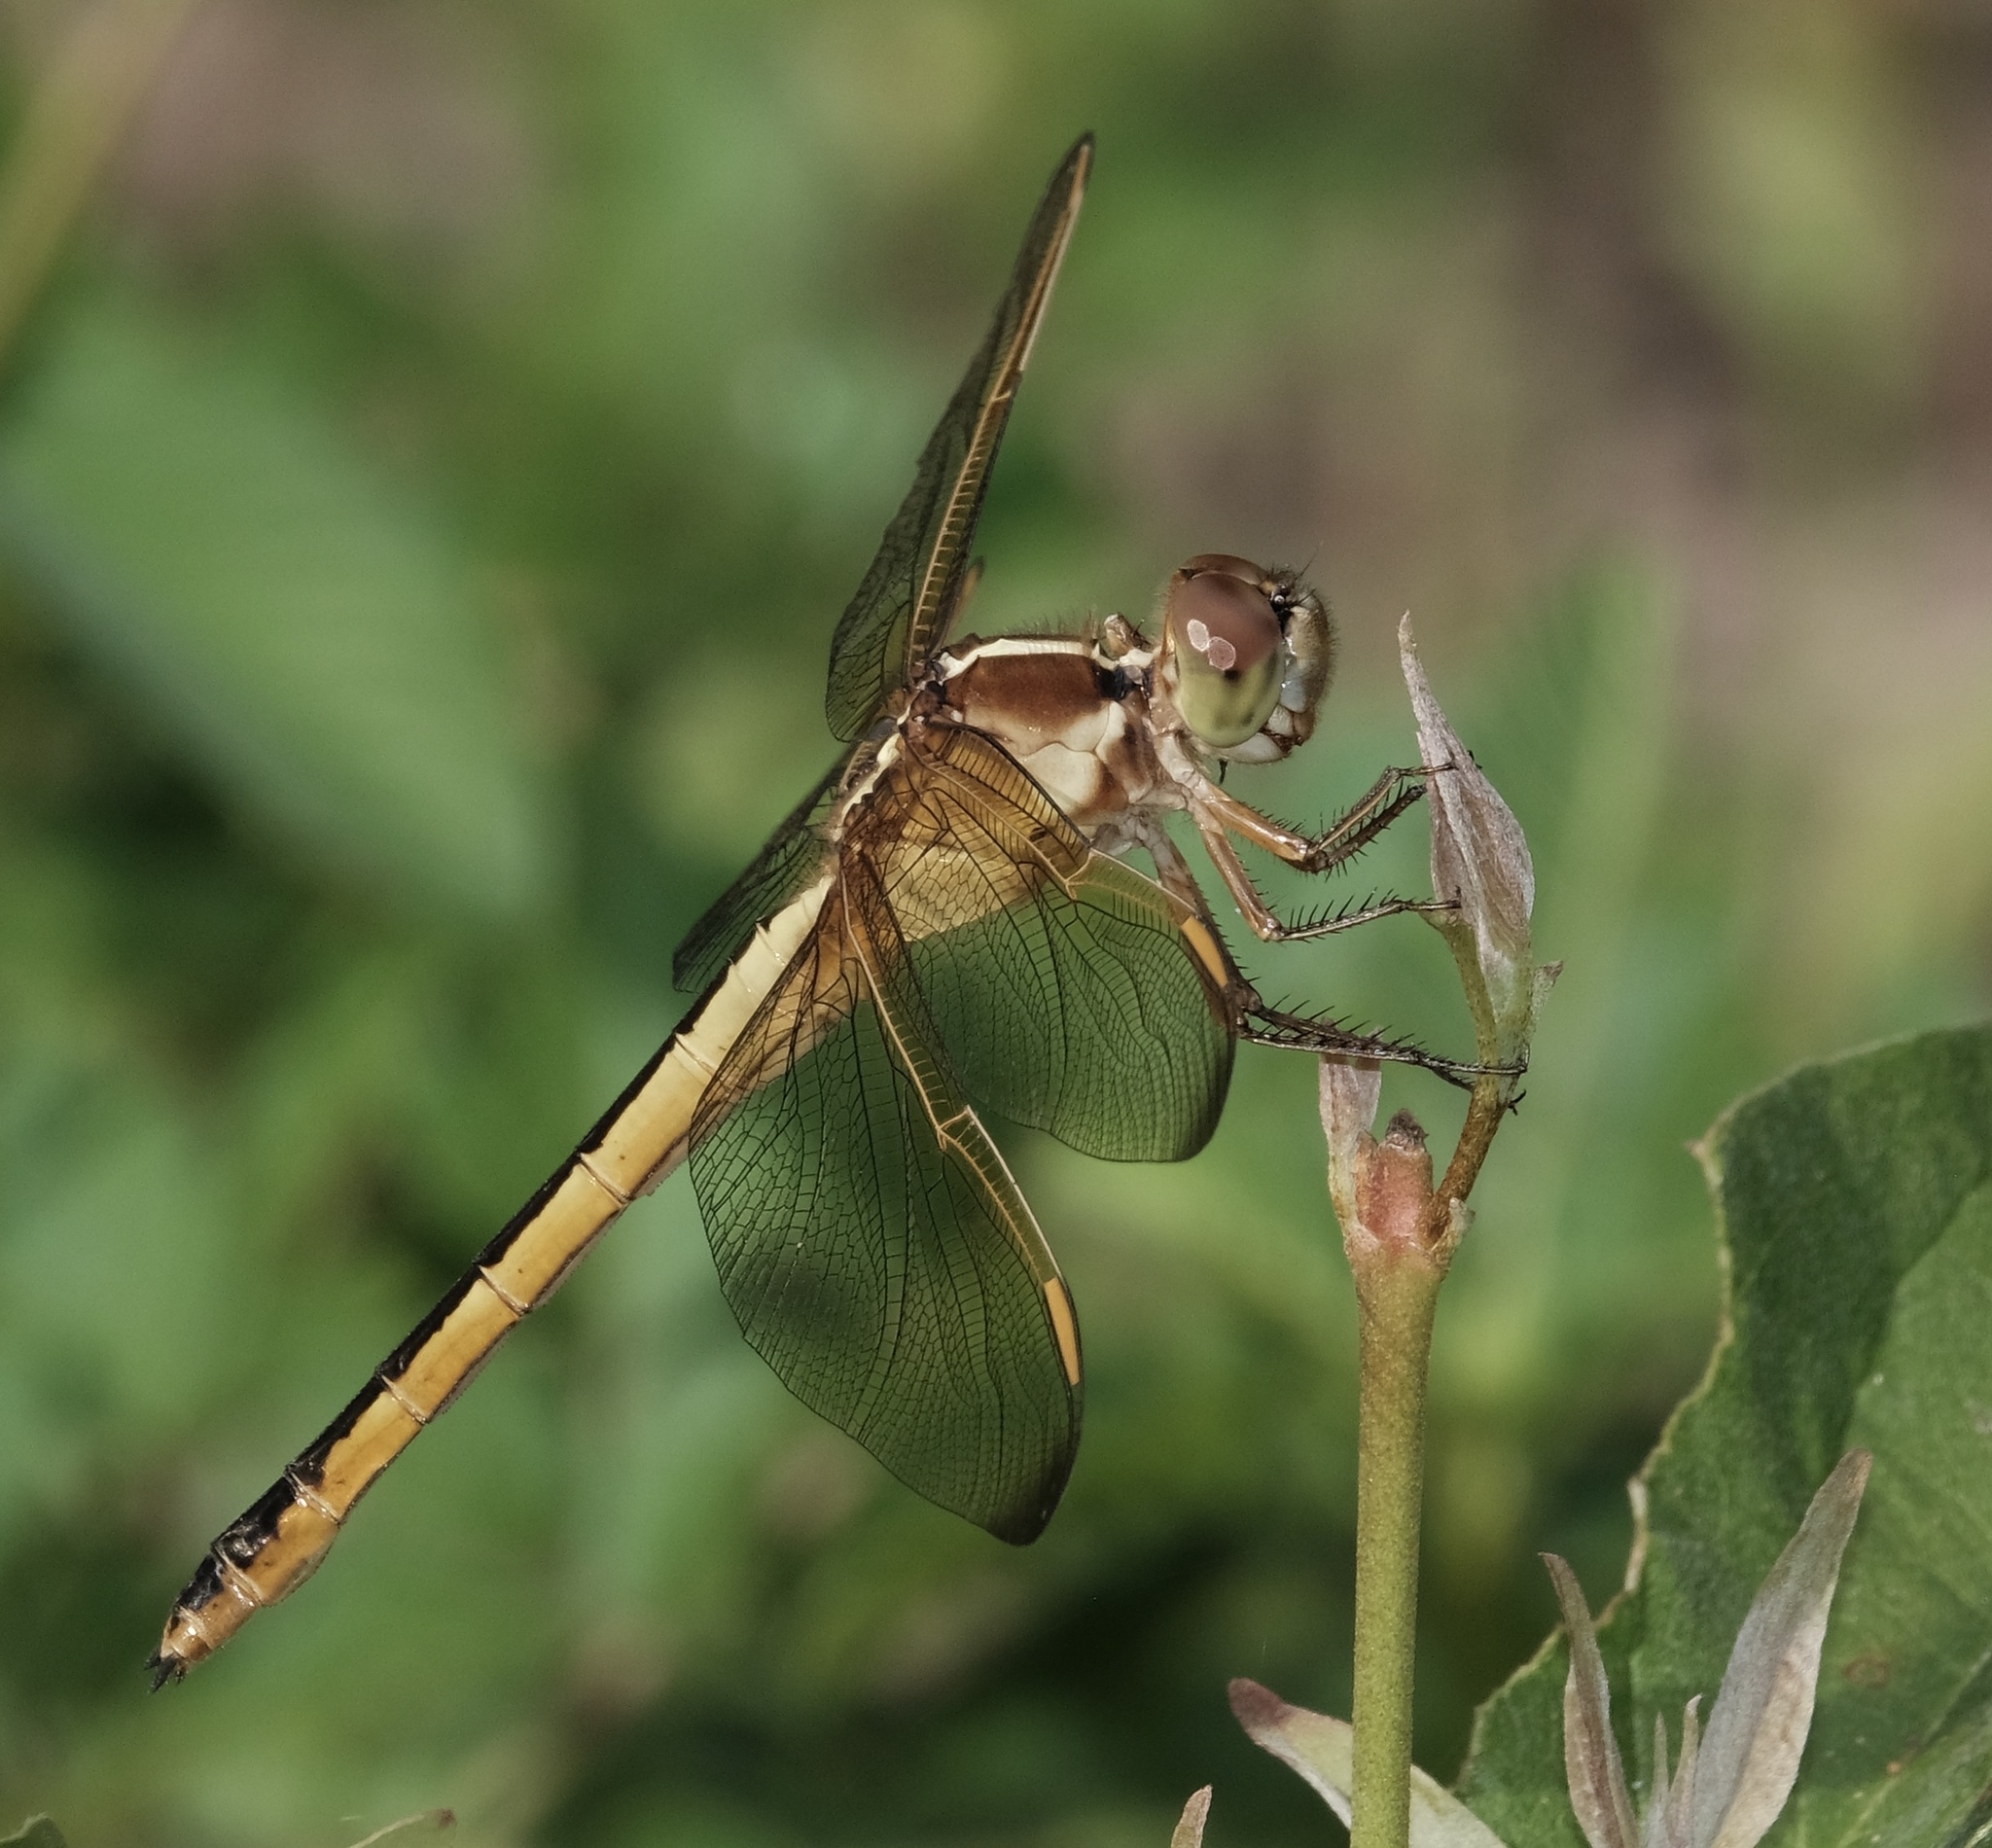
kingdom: Animalia
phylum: Arthropoda
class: Insecta
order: Odonata
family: Libellulidae
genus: Libellula
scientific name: Libellula needhami
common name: Needham's skimmer
